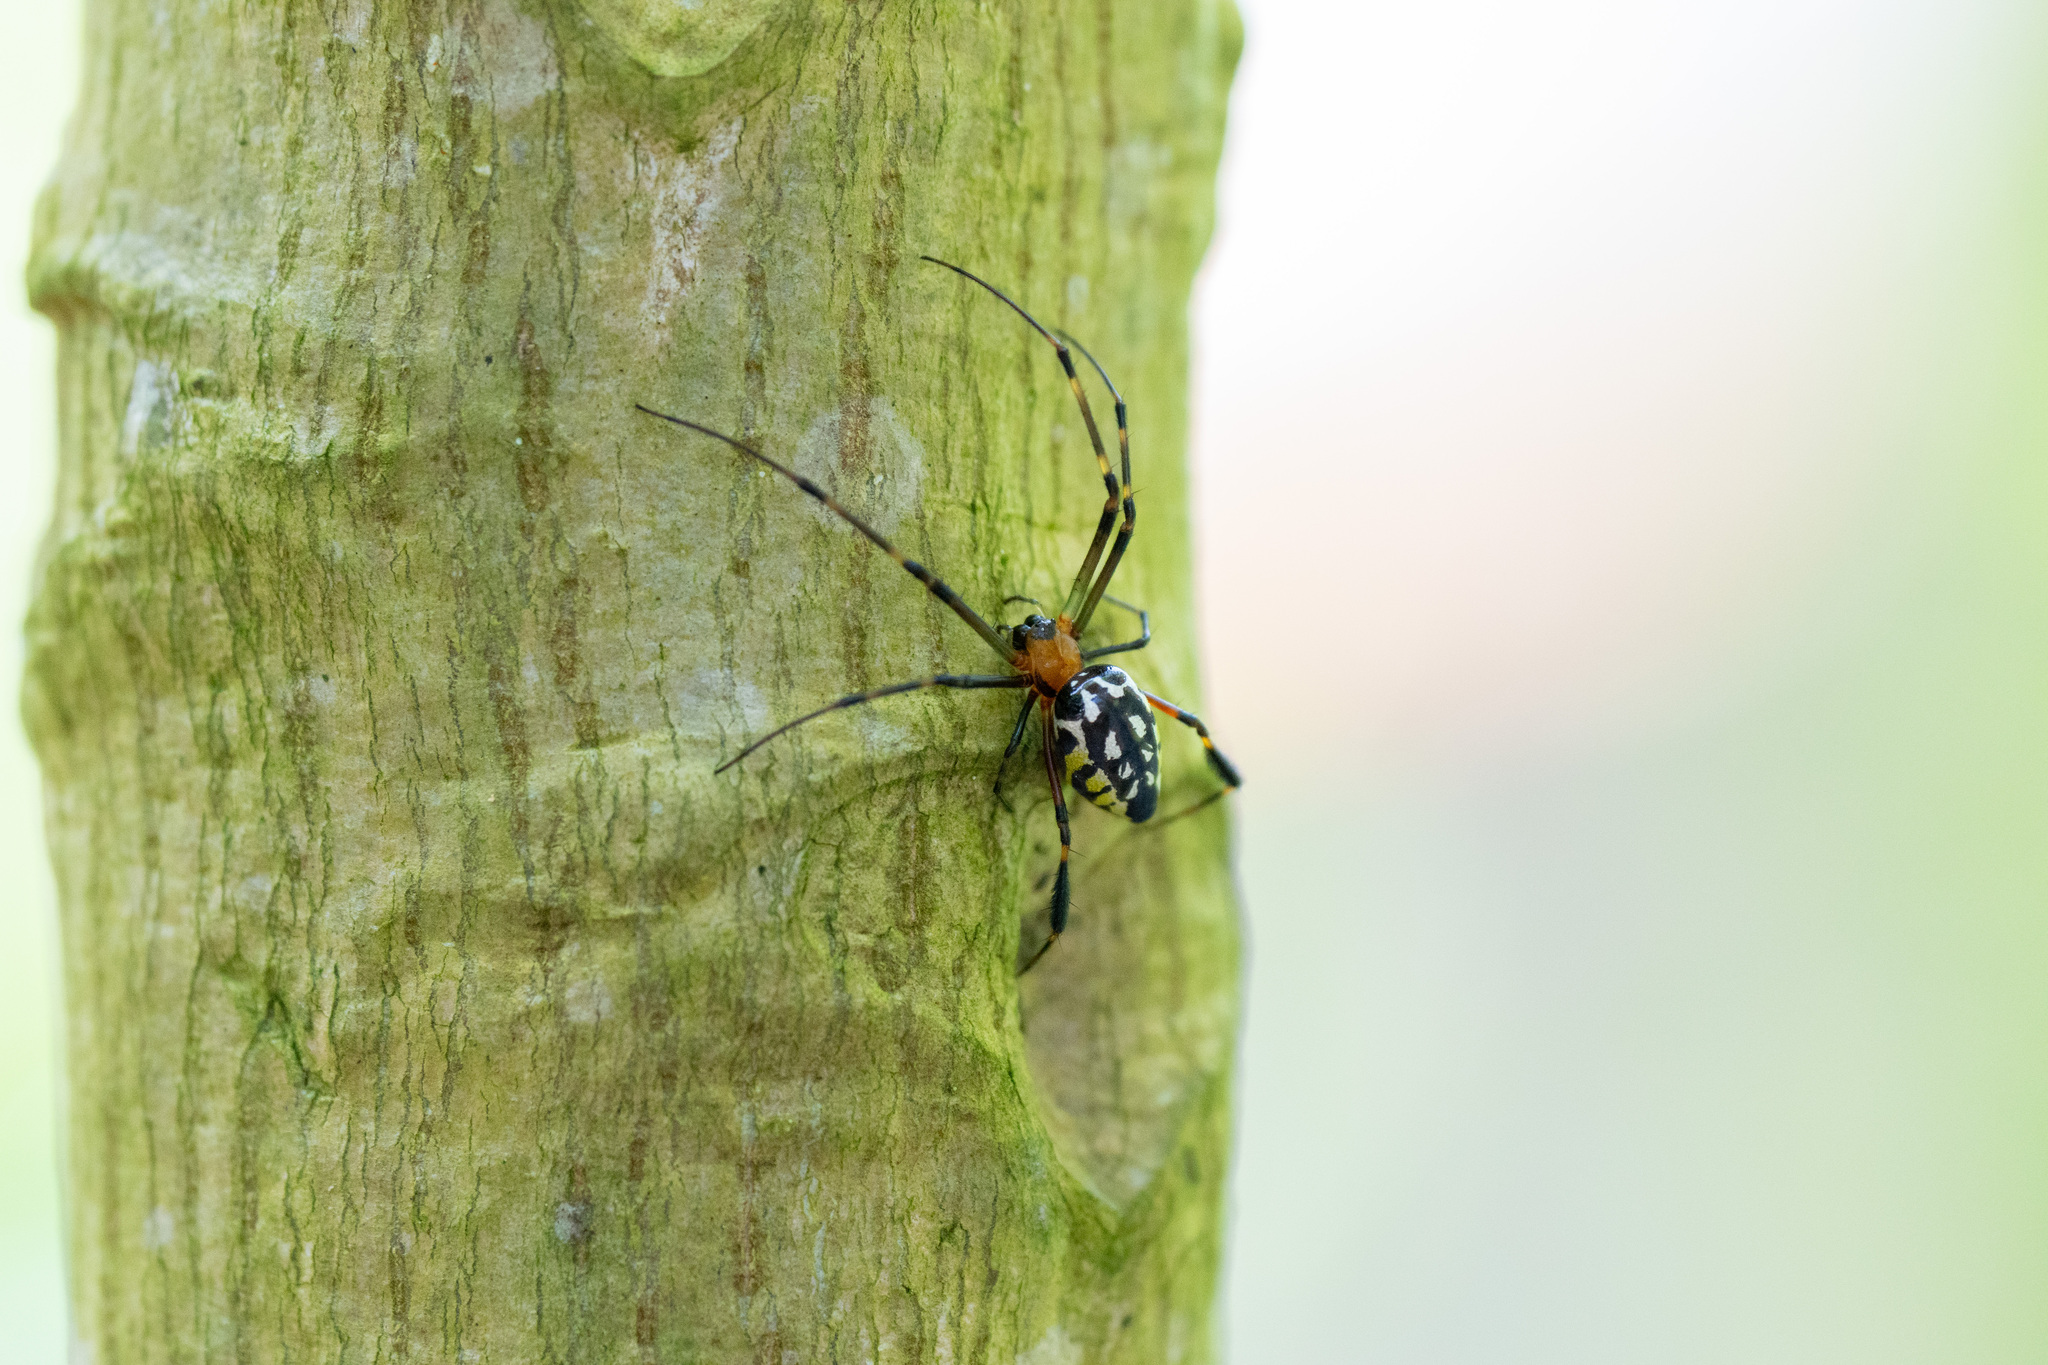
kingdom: Animalia
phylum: Arthropoda
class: Arachnida
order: Araneae
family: Tetragnathidae
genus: Leucauge
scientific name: Leucauge tessellata
